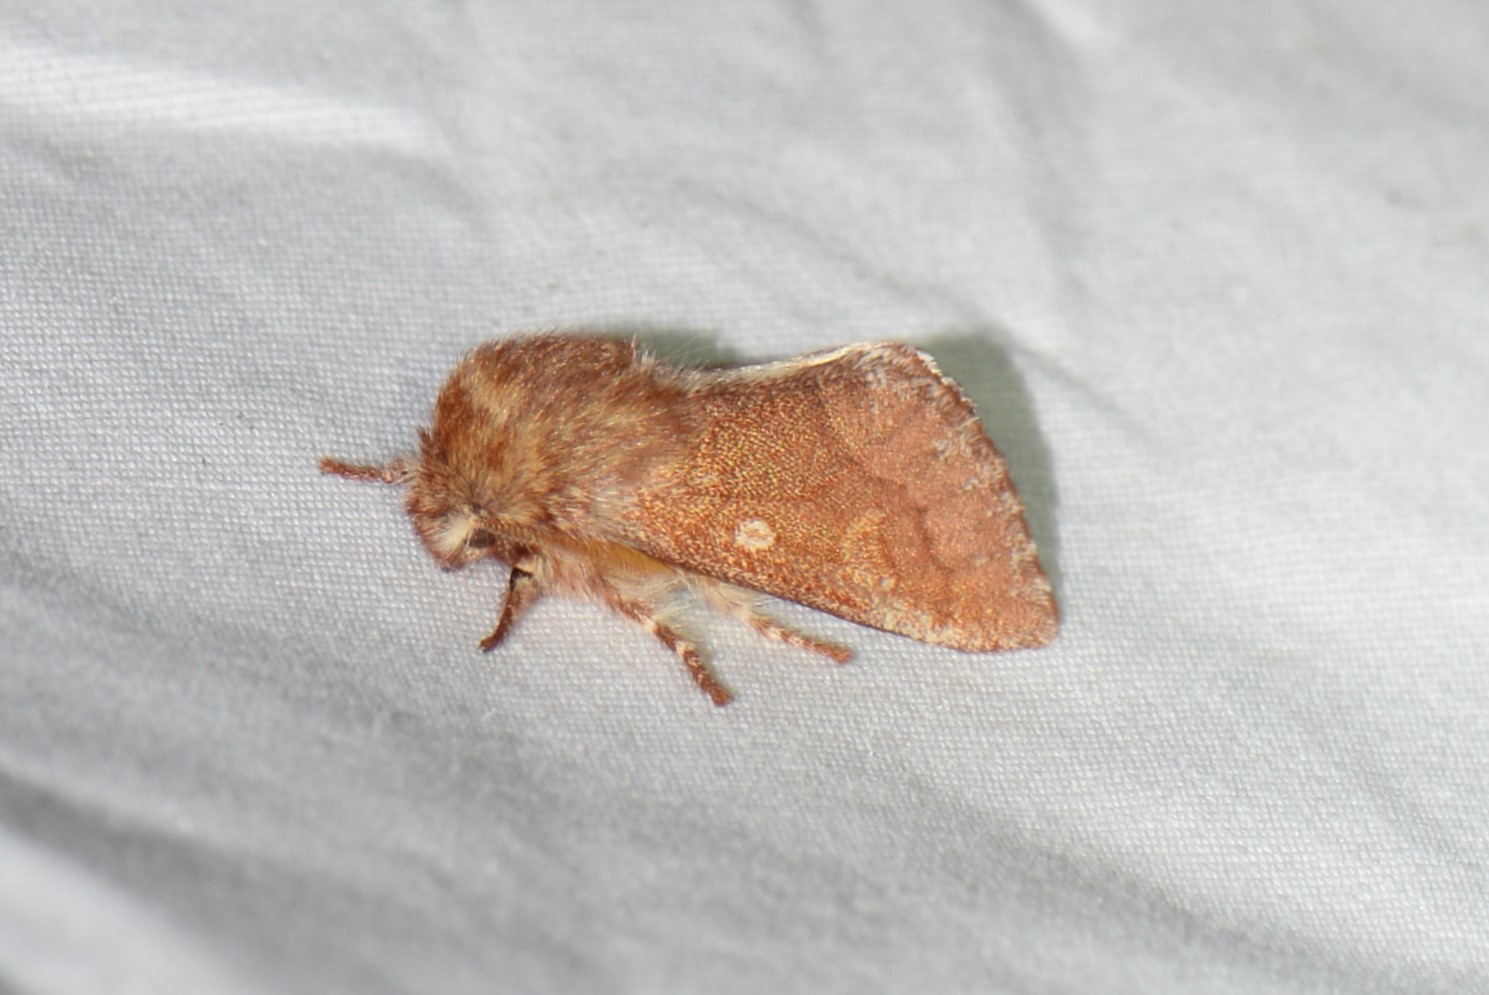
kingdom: Animalia
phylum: Arthropoda
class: Insecta
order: Lepidoptera
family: Noctuidae
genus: Psaphida
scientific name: Psaphida styracis
